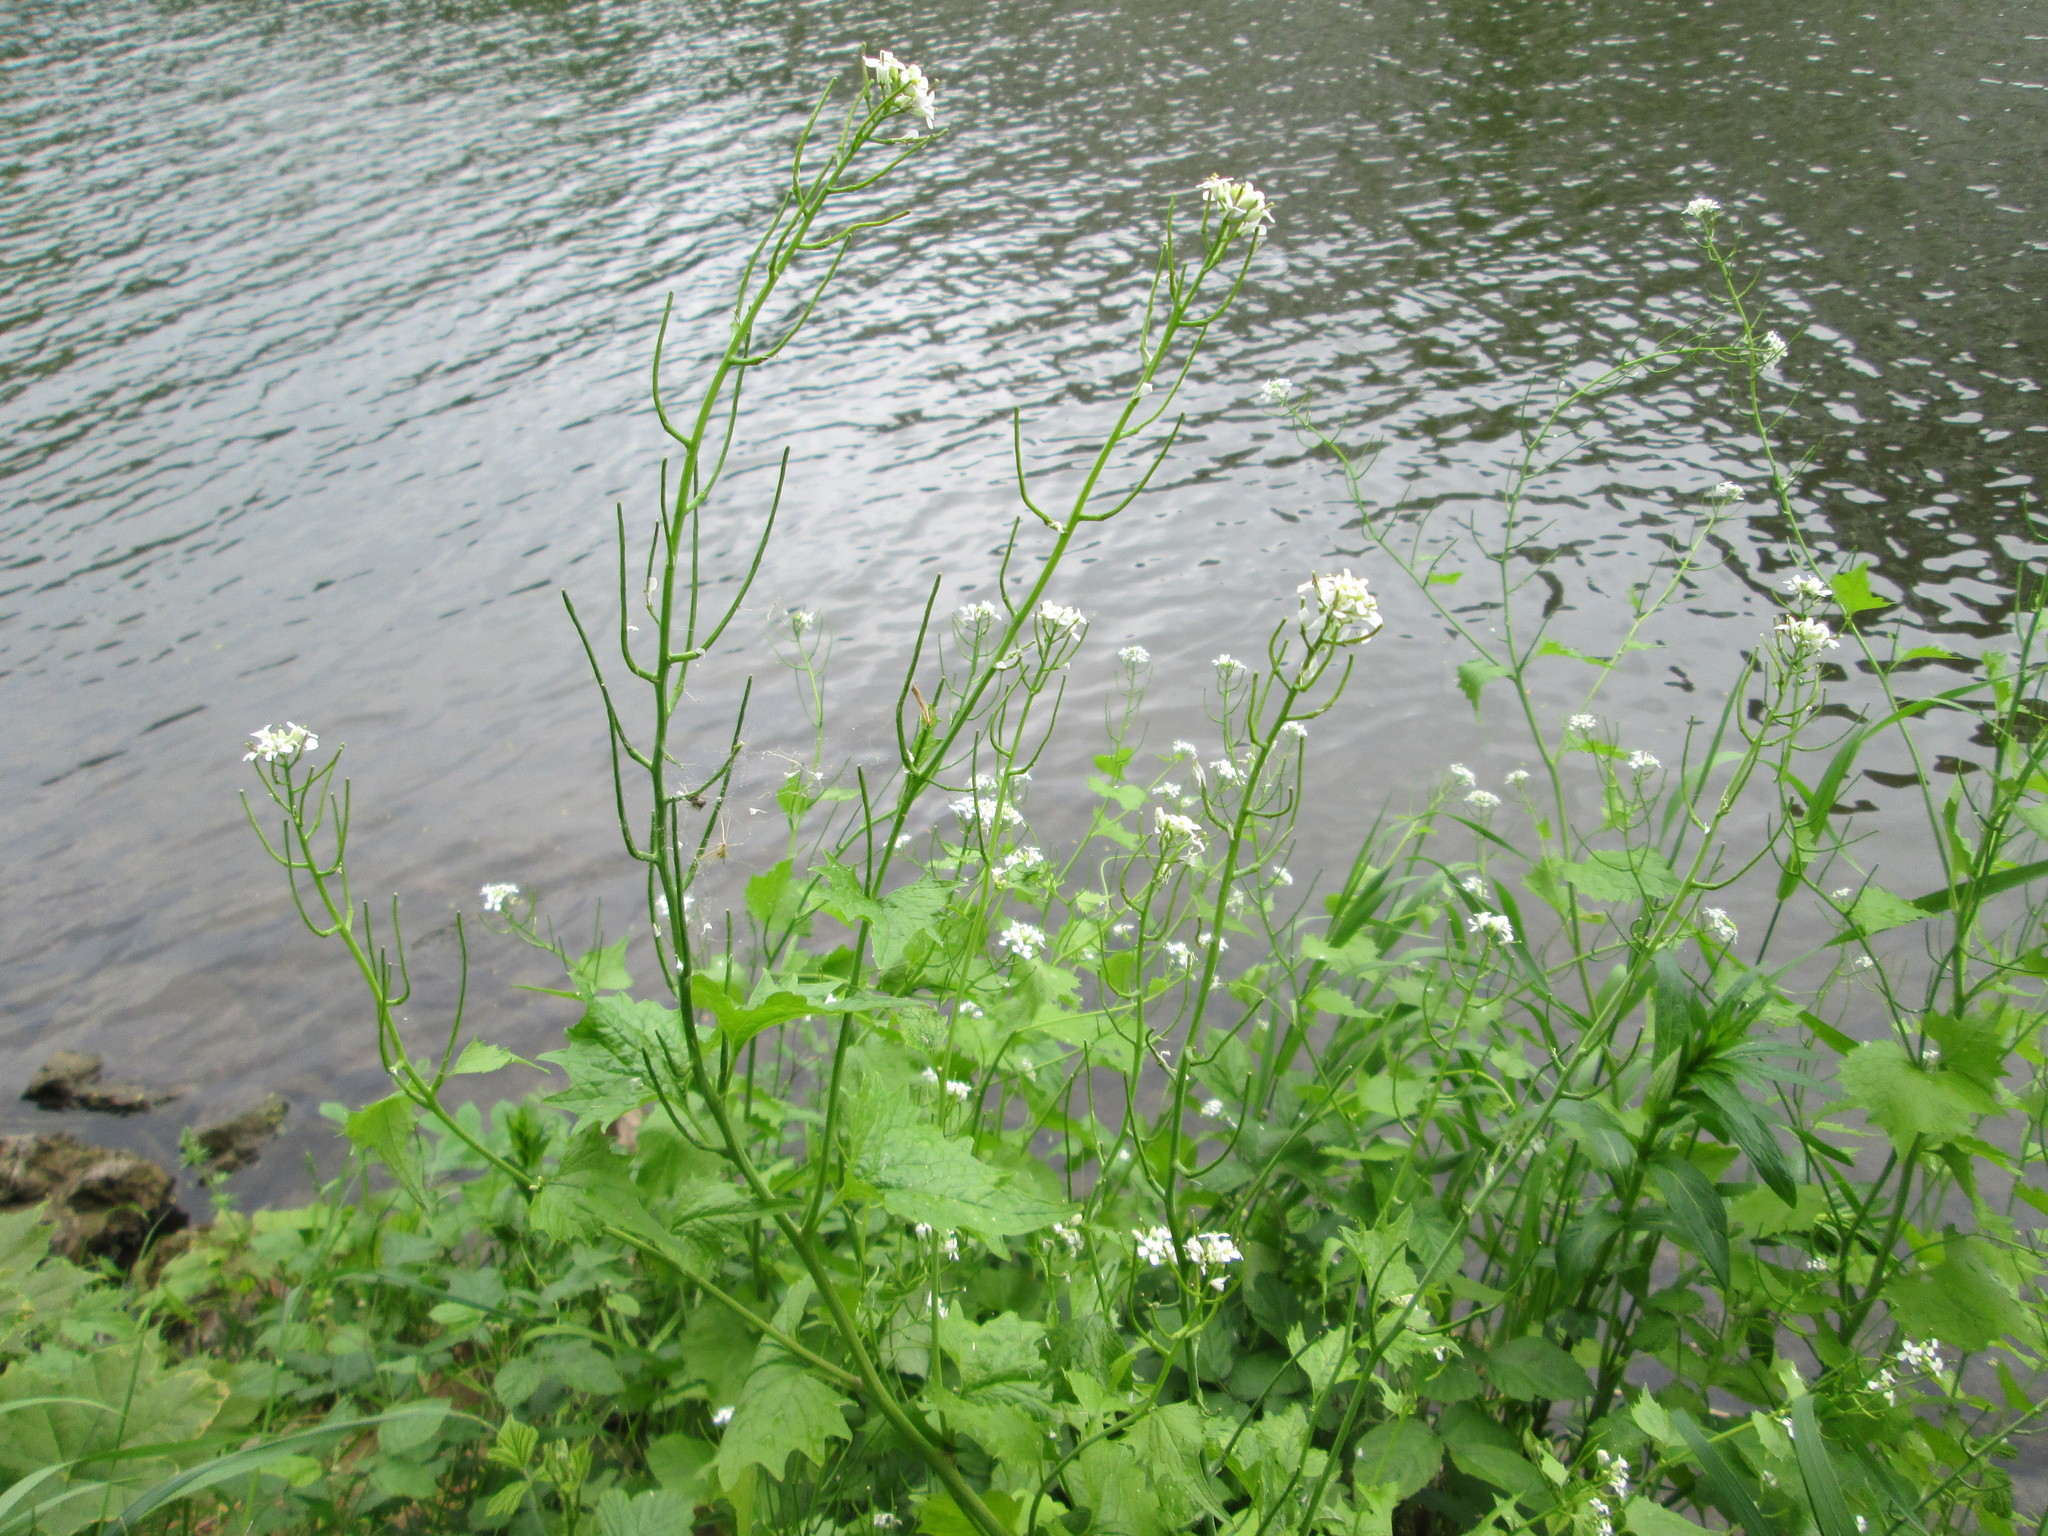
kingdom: Plantae
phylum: Tracheophyta
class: Magnoliopsida
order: Brassicales
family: Brassicaceae
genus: Alliaria
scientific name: Alliaria petiolata
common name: Garlic mustard
